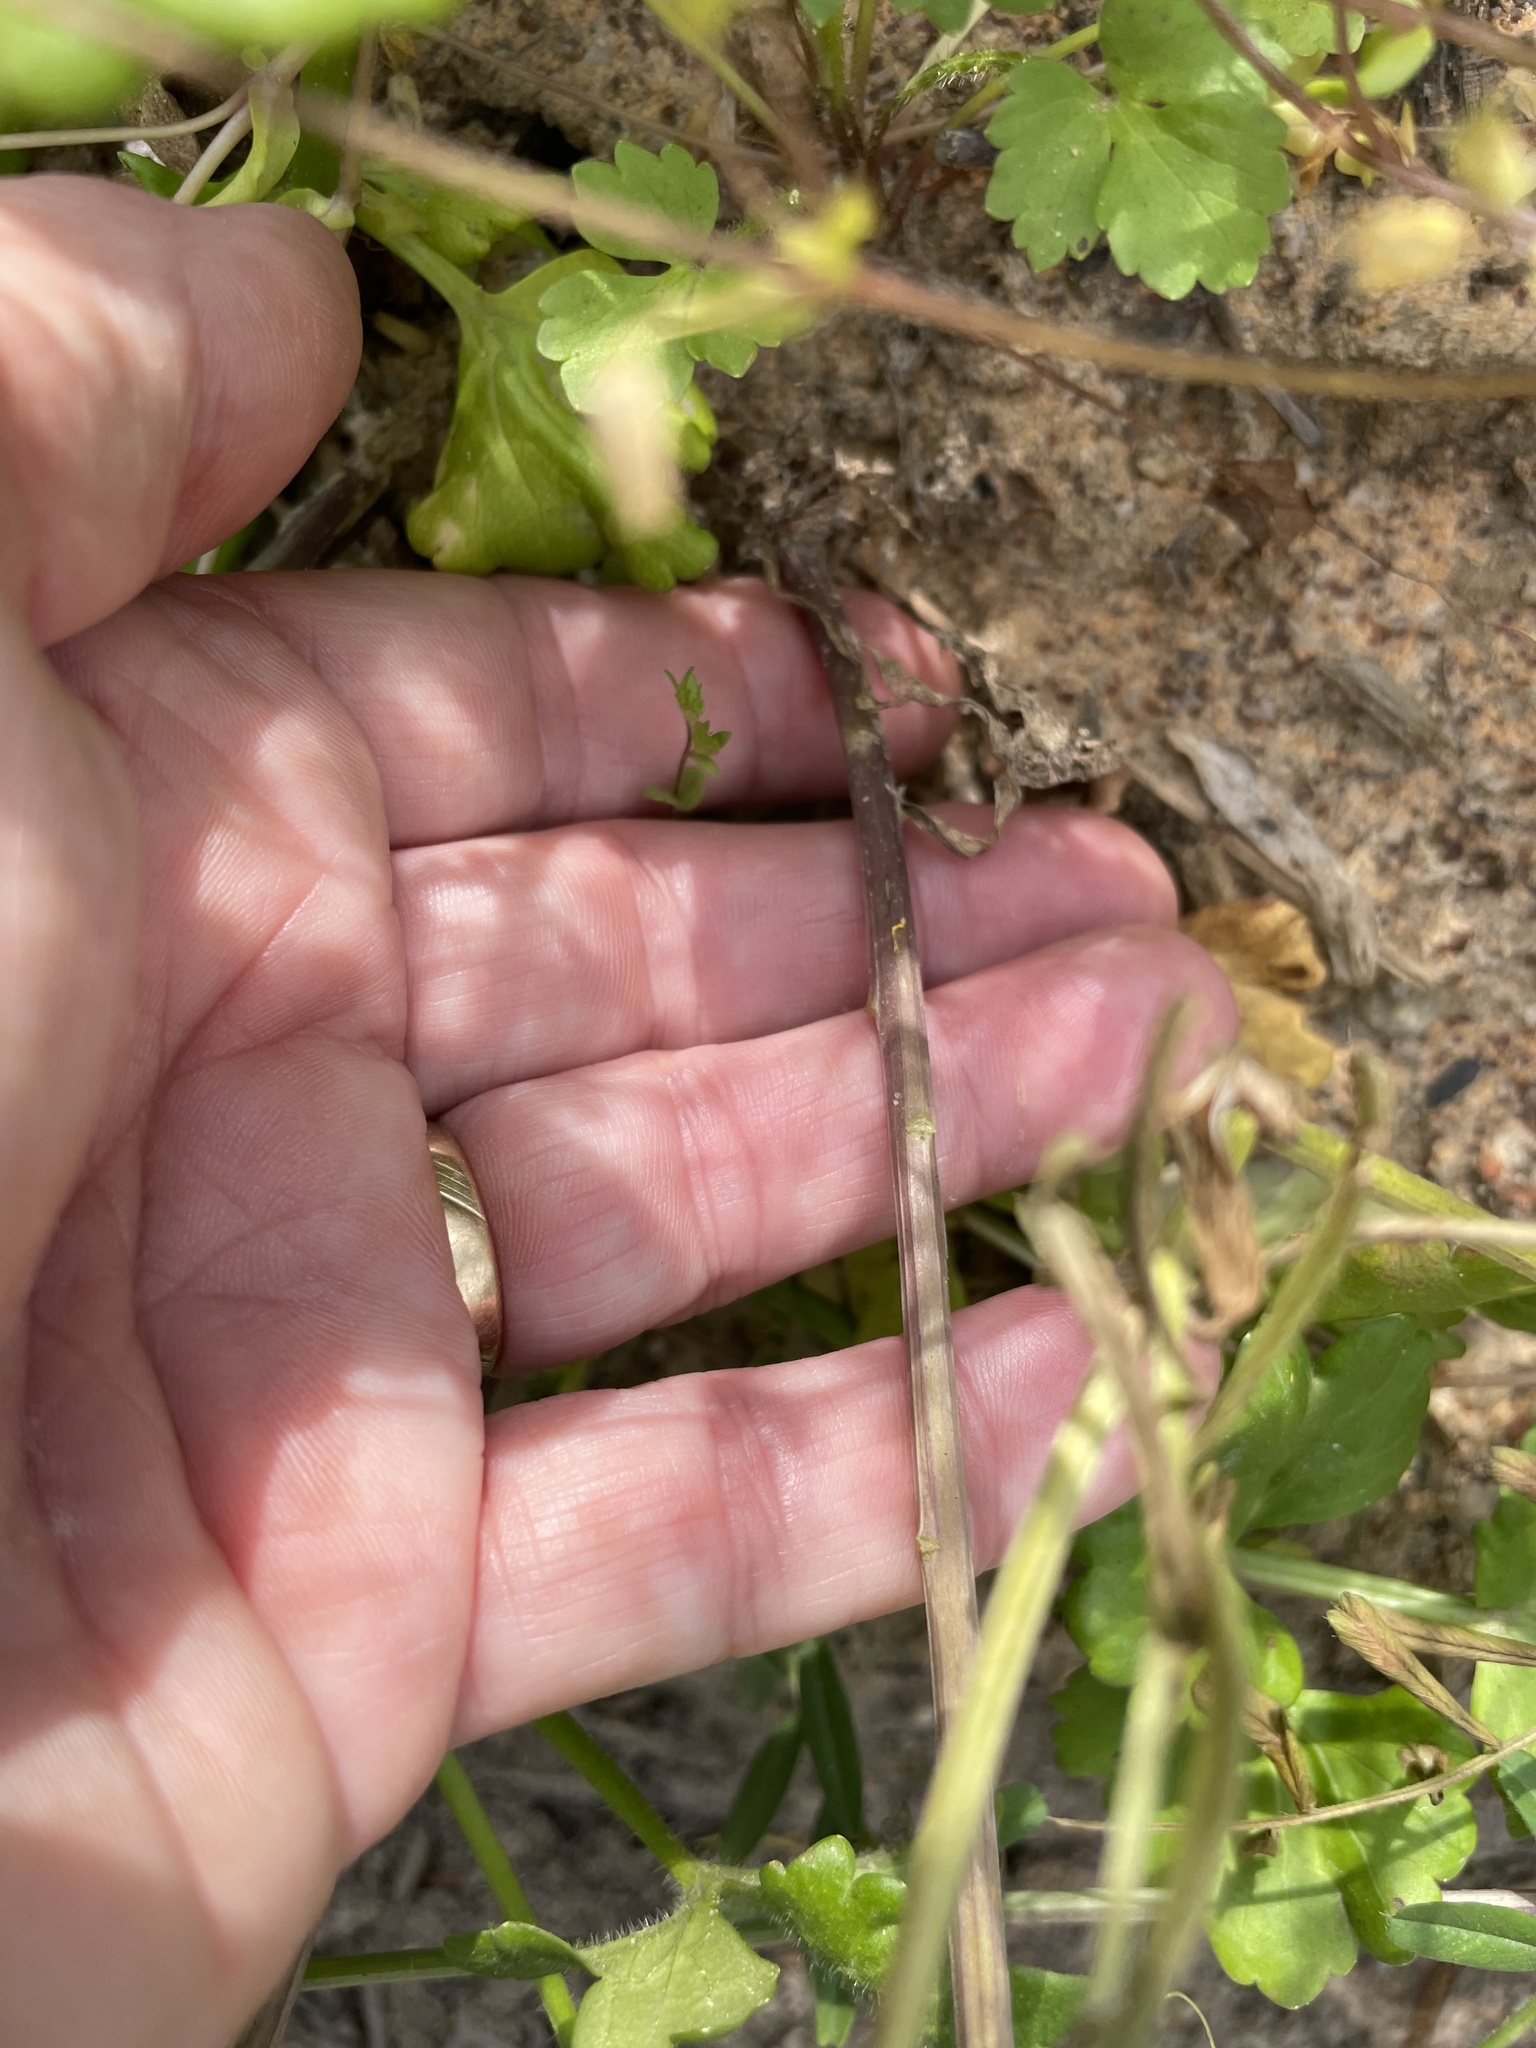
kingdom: Plantae
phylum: Tracheophyta
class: Magnoliopsida
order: Brassicales
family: Brassicaceae
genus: Thlaspi
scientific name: Thlaspi arvense
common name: Field pennycress
